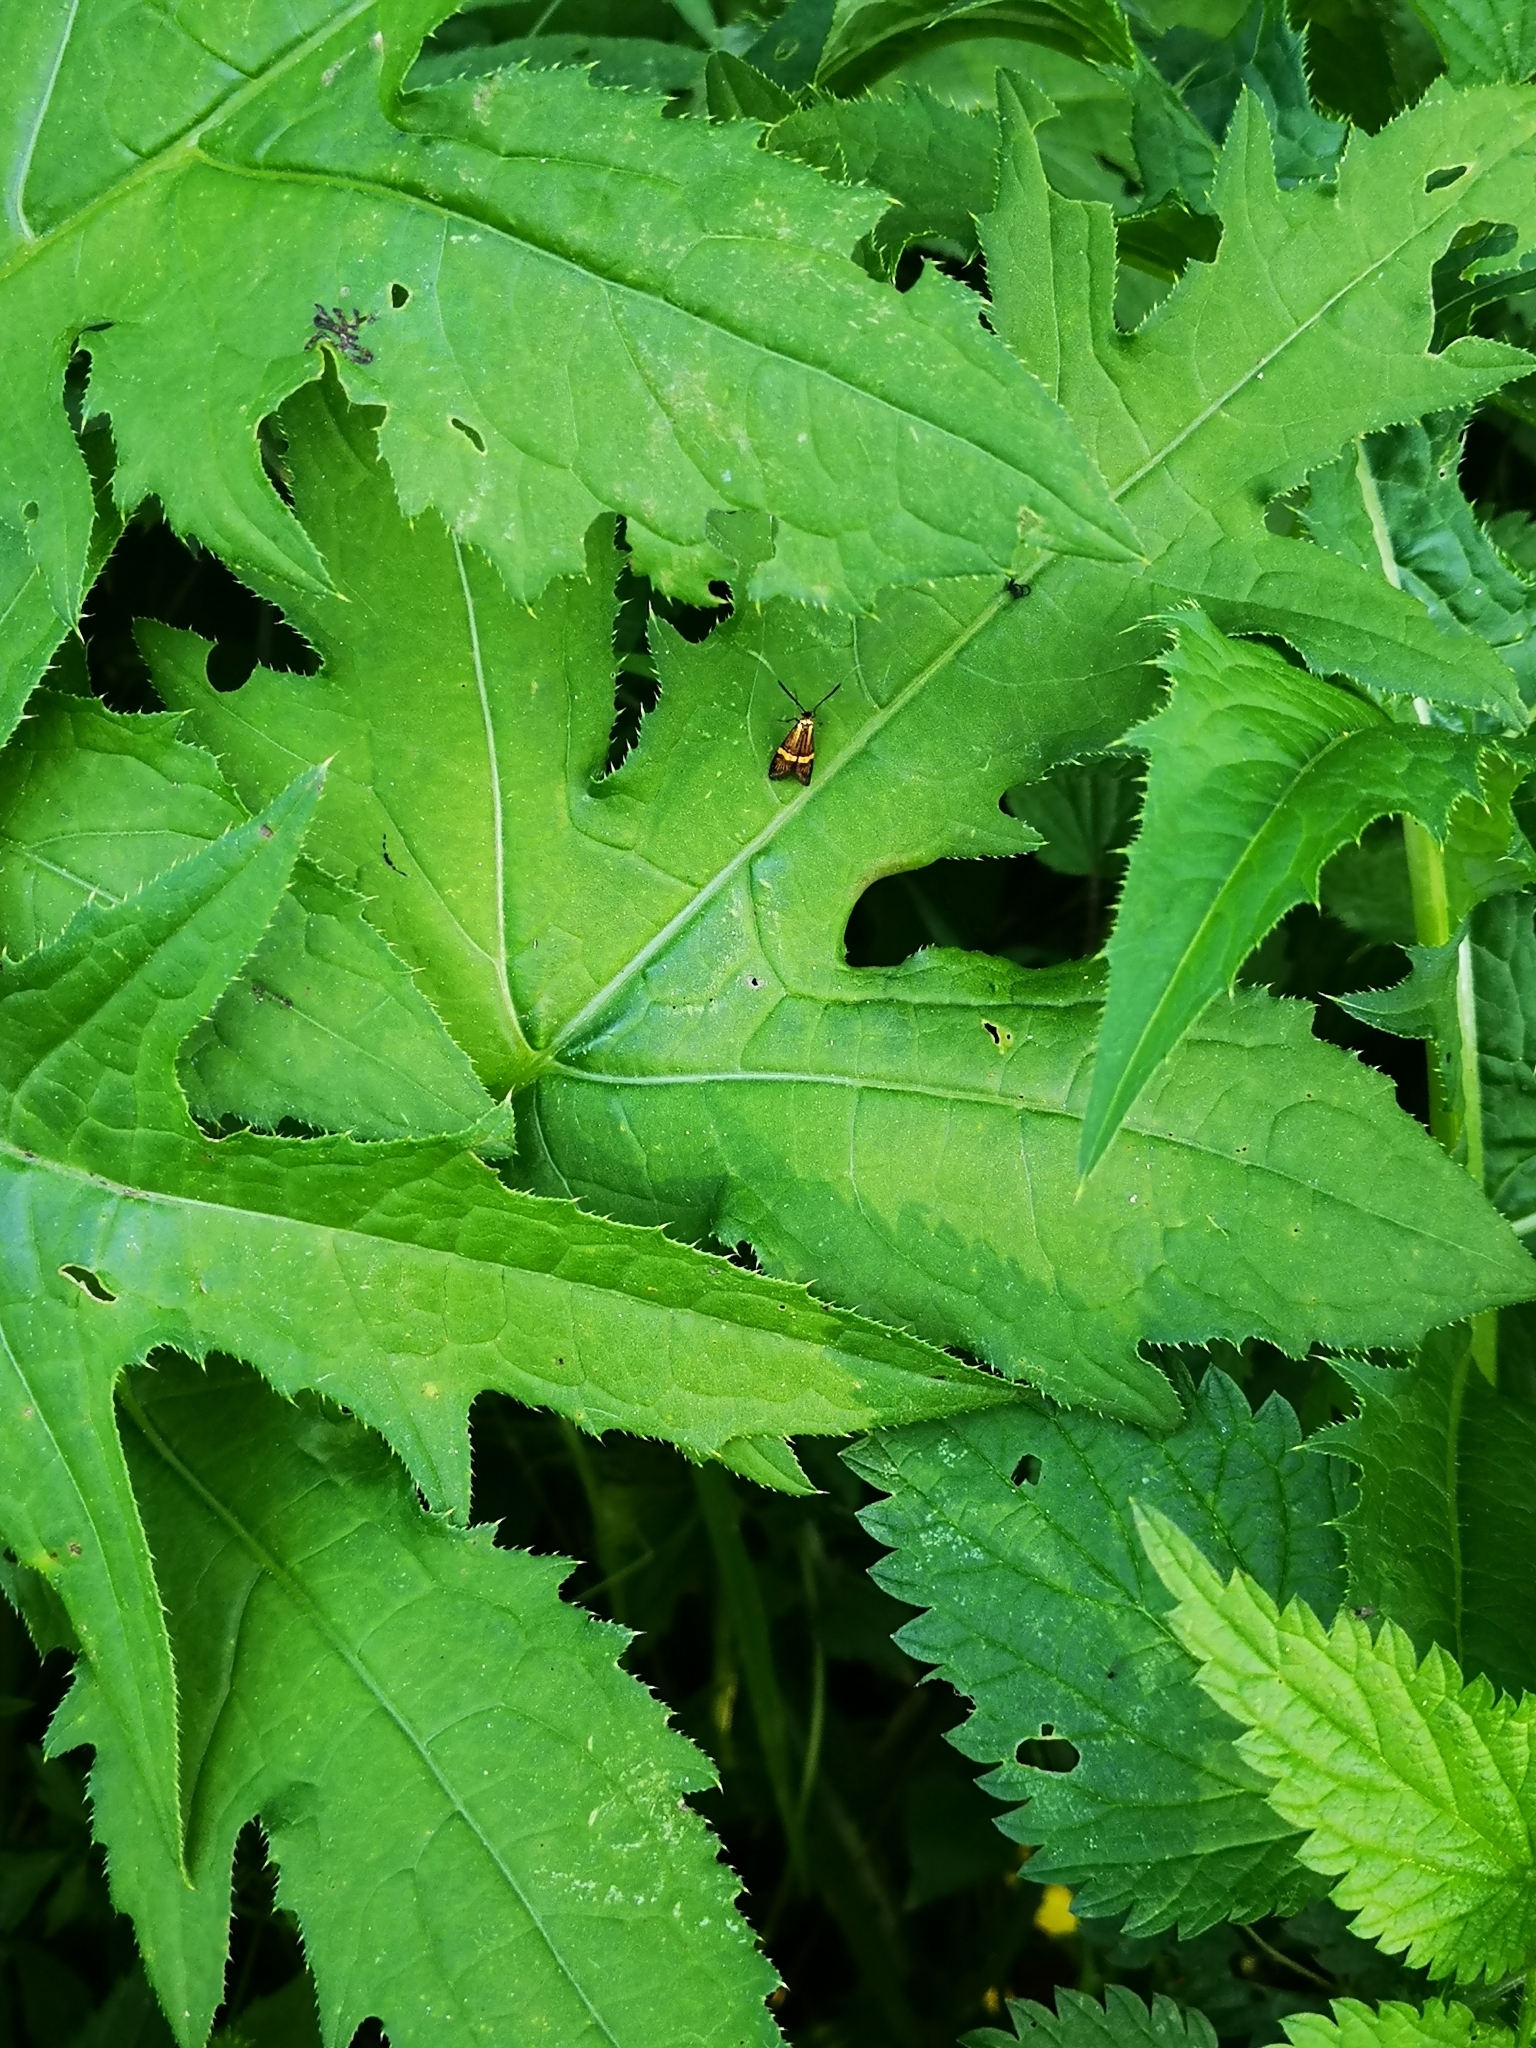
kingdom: Animalia
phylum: Arthropoda
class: Insecta
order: Lepidoptera
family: Adelidae
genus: Nemophora
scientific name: Nemophora
